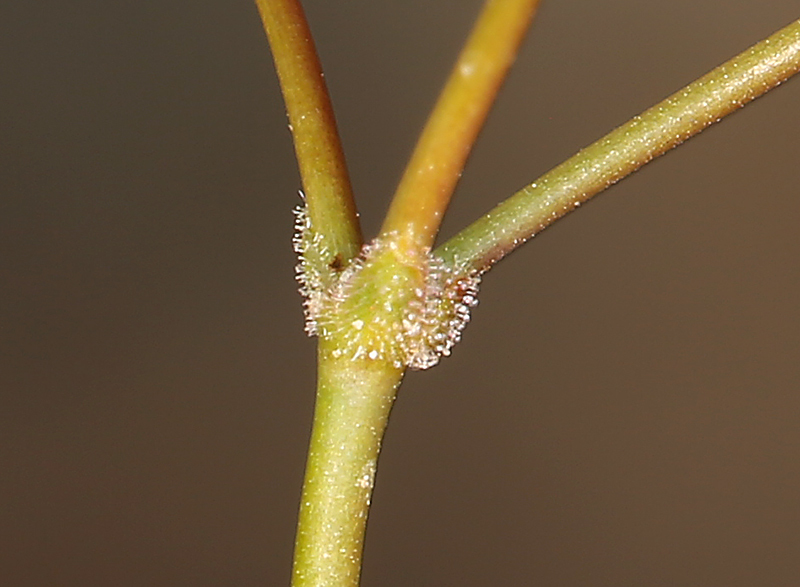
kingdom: Plantae
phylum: Tracheophyta
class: Magnoliopsida
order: Caryophyllales
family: Polygonaceae
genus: Eriogonum
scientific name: Eriogonum pusillum
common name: Yellow turbans
